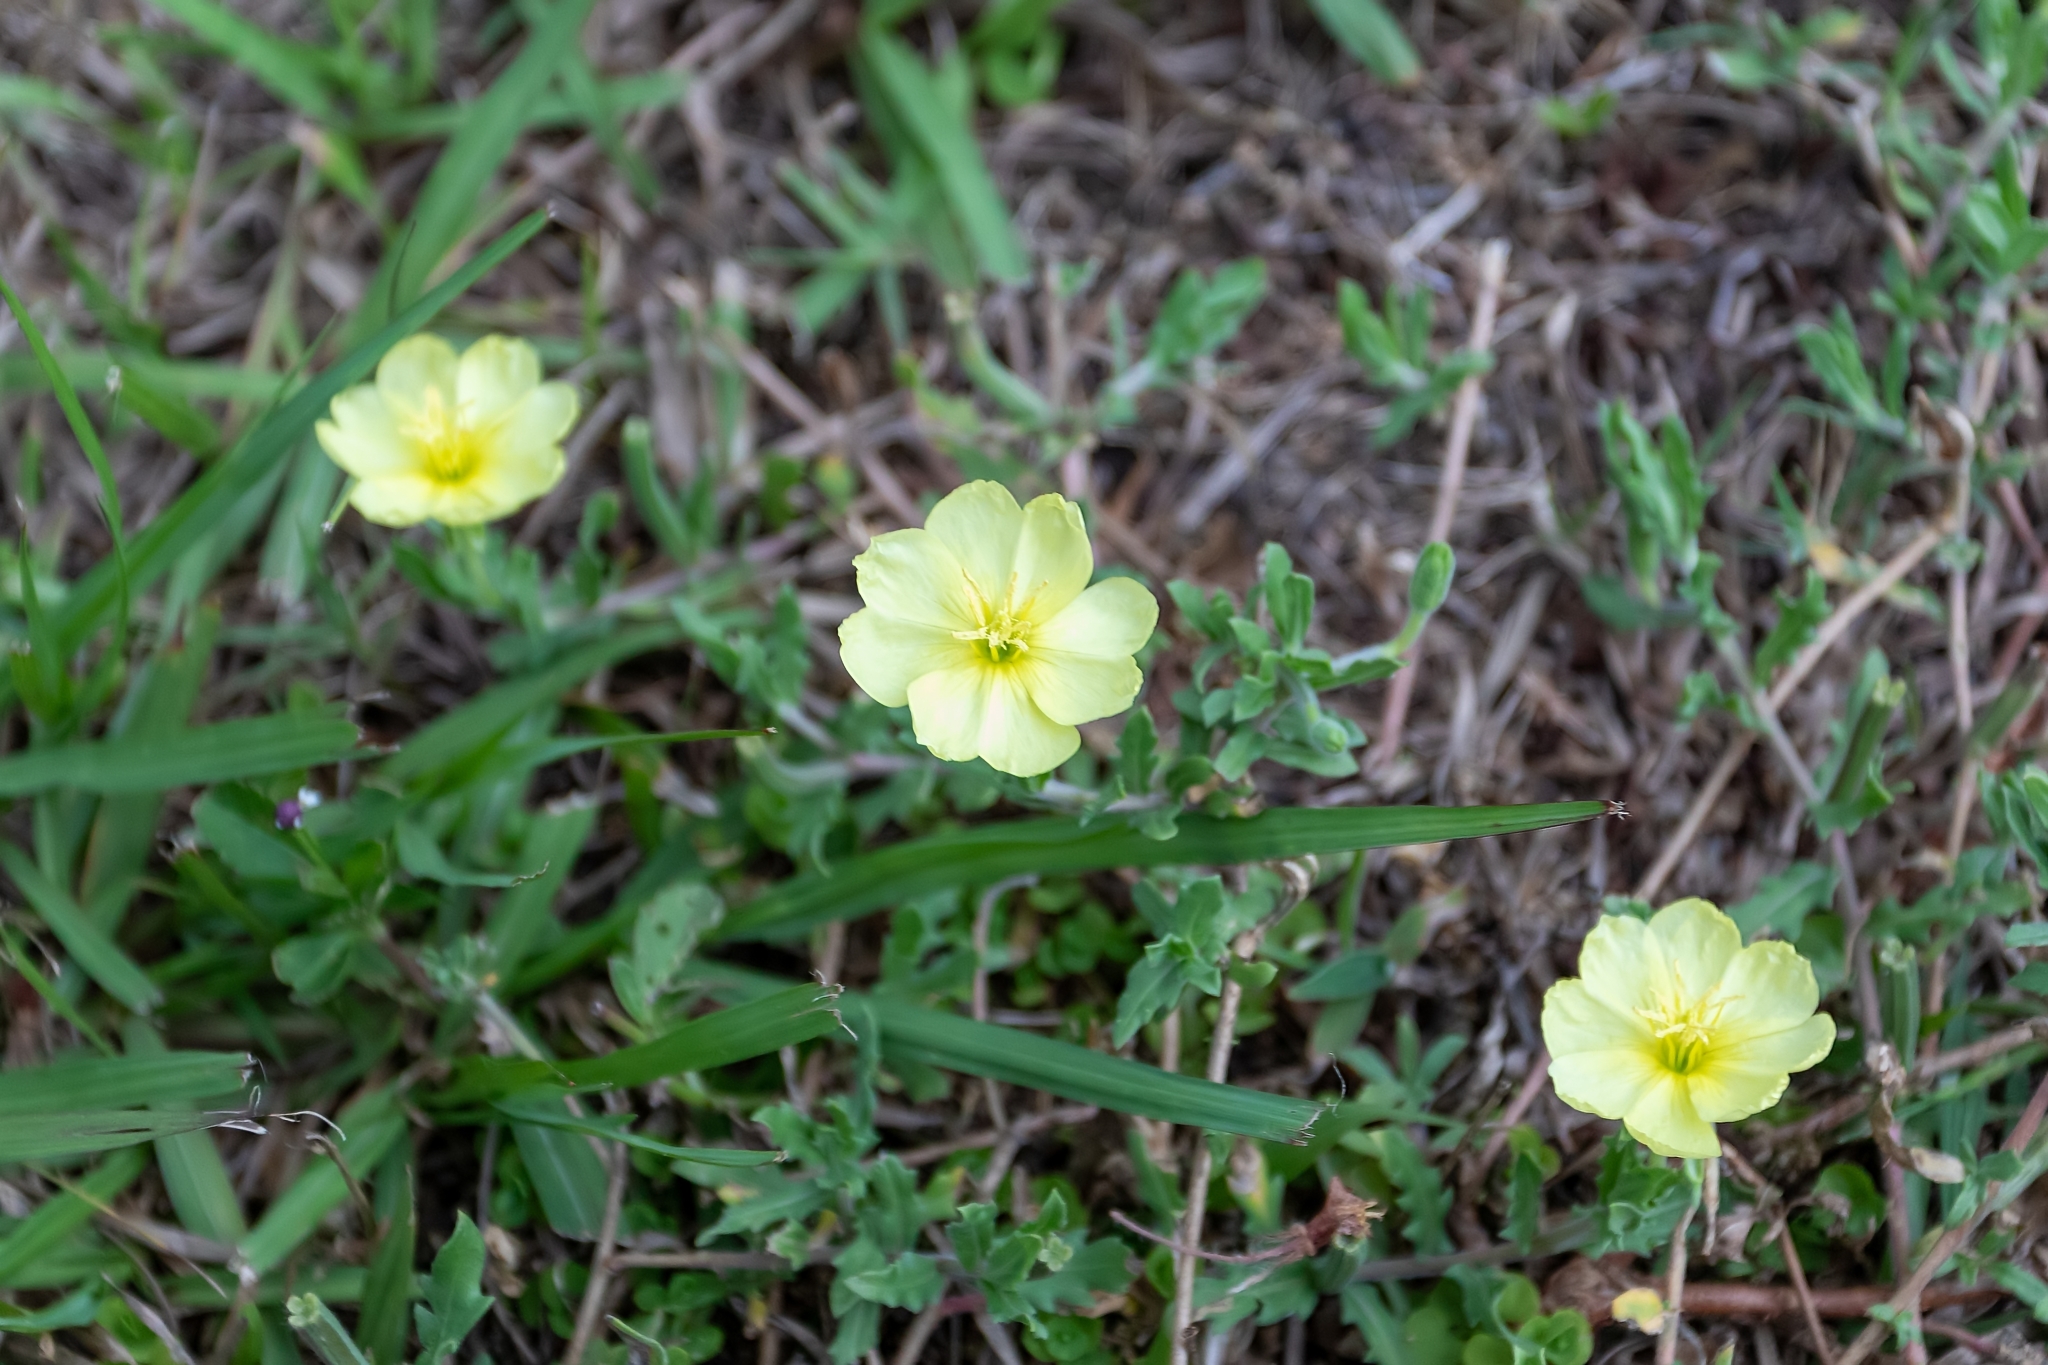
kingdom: Plantae
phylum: Tracheophyta
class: Magnoliopsida
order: Myrtales
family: Onagraceae
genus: Oenothera
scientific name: Oenothera laciniata
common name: Cut-leaved evening-primrose
